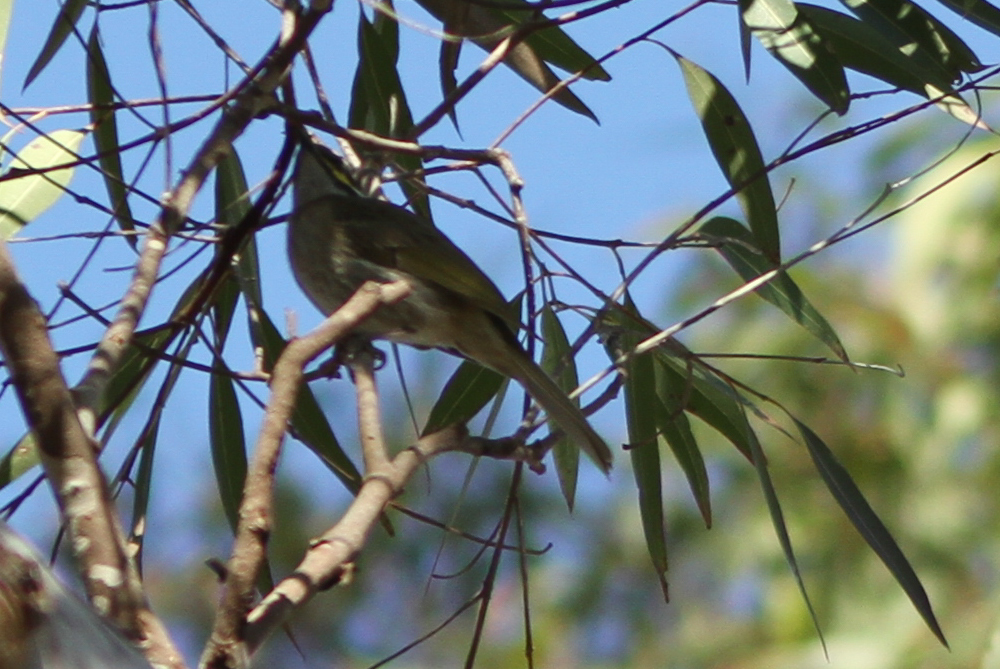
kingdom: Animalia
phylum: Chordata
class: Aves
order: Passeriformes
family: Meliphagidae
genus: Caligavis
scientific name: Caligavis chrysops
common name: Yellow-faced honeyeater
